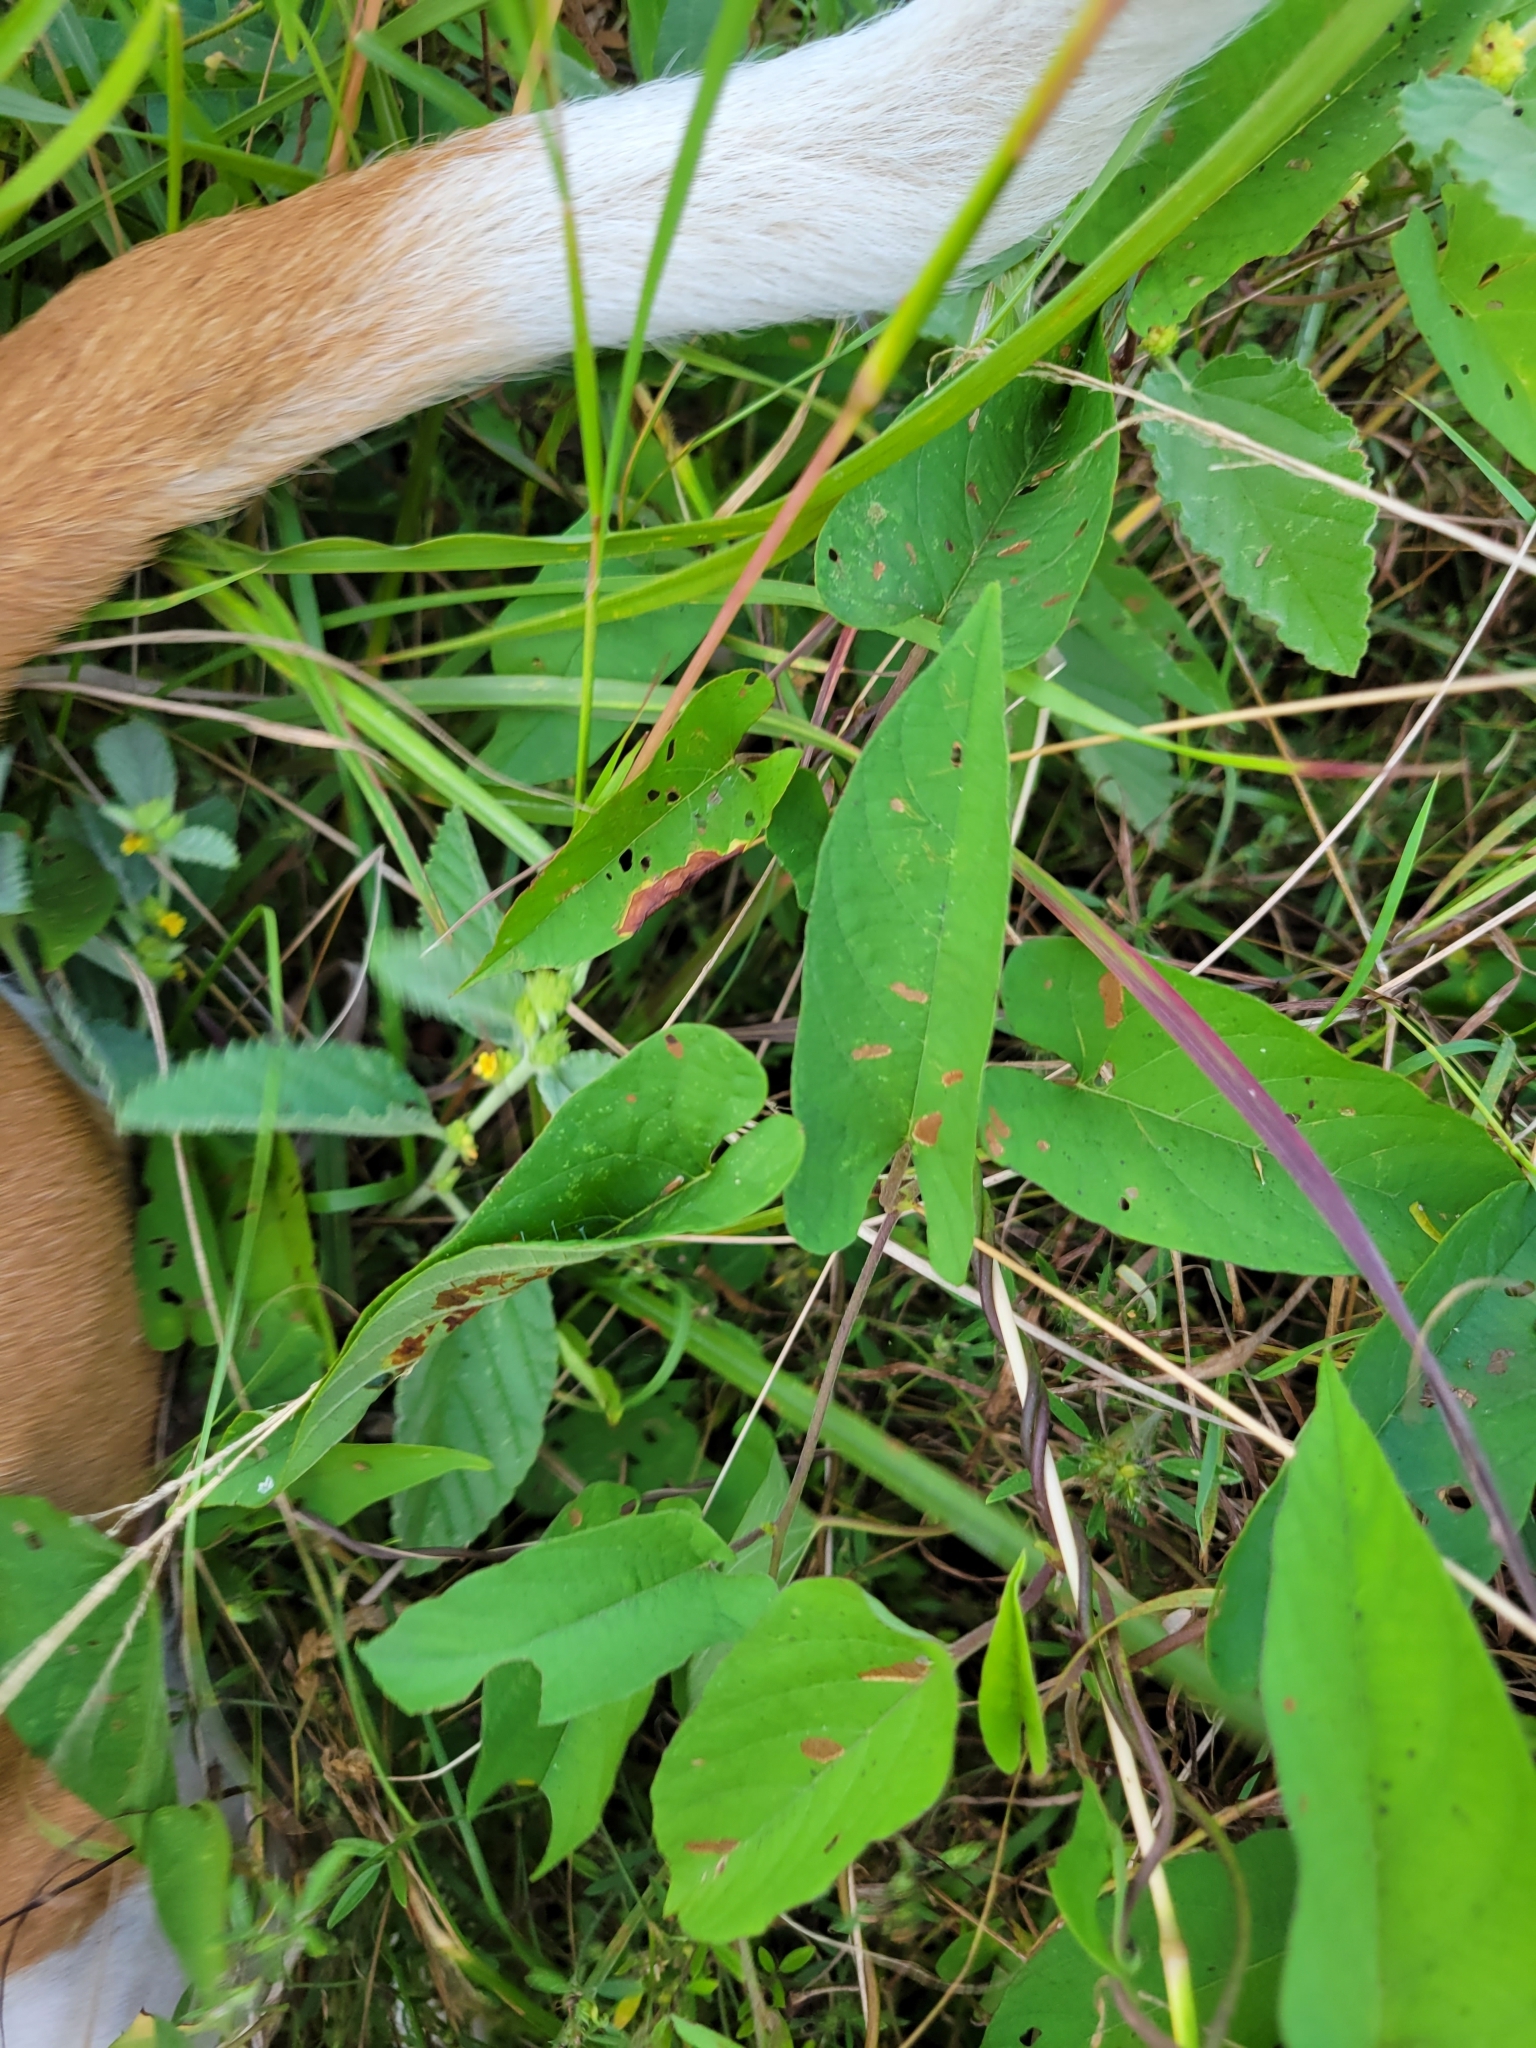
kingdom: Plantae
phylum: Tracheophyta
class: Magnoliopsida
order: Solanales
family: Convolvulaceae
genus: Camonea
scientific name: Camonea umbellata
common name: Hogvine
